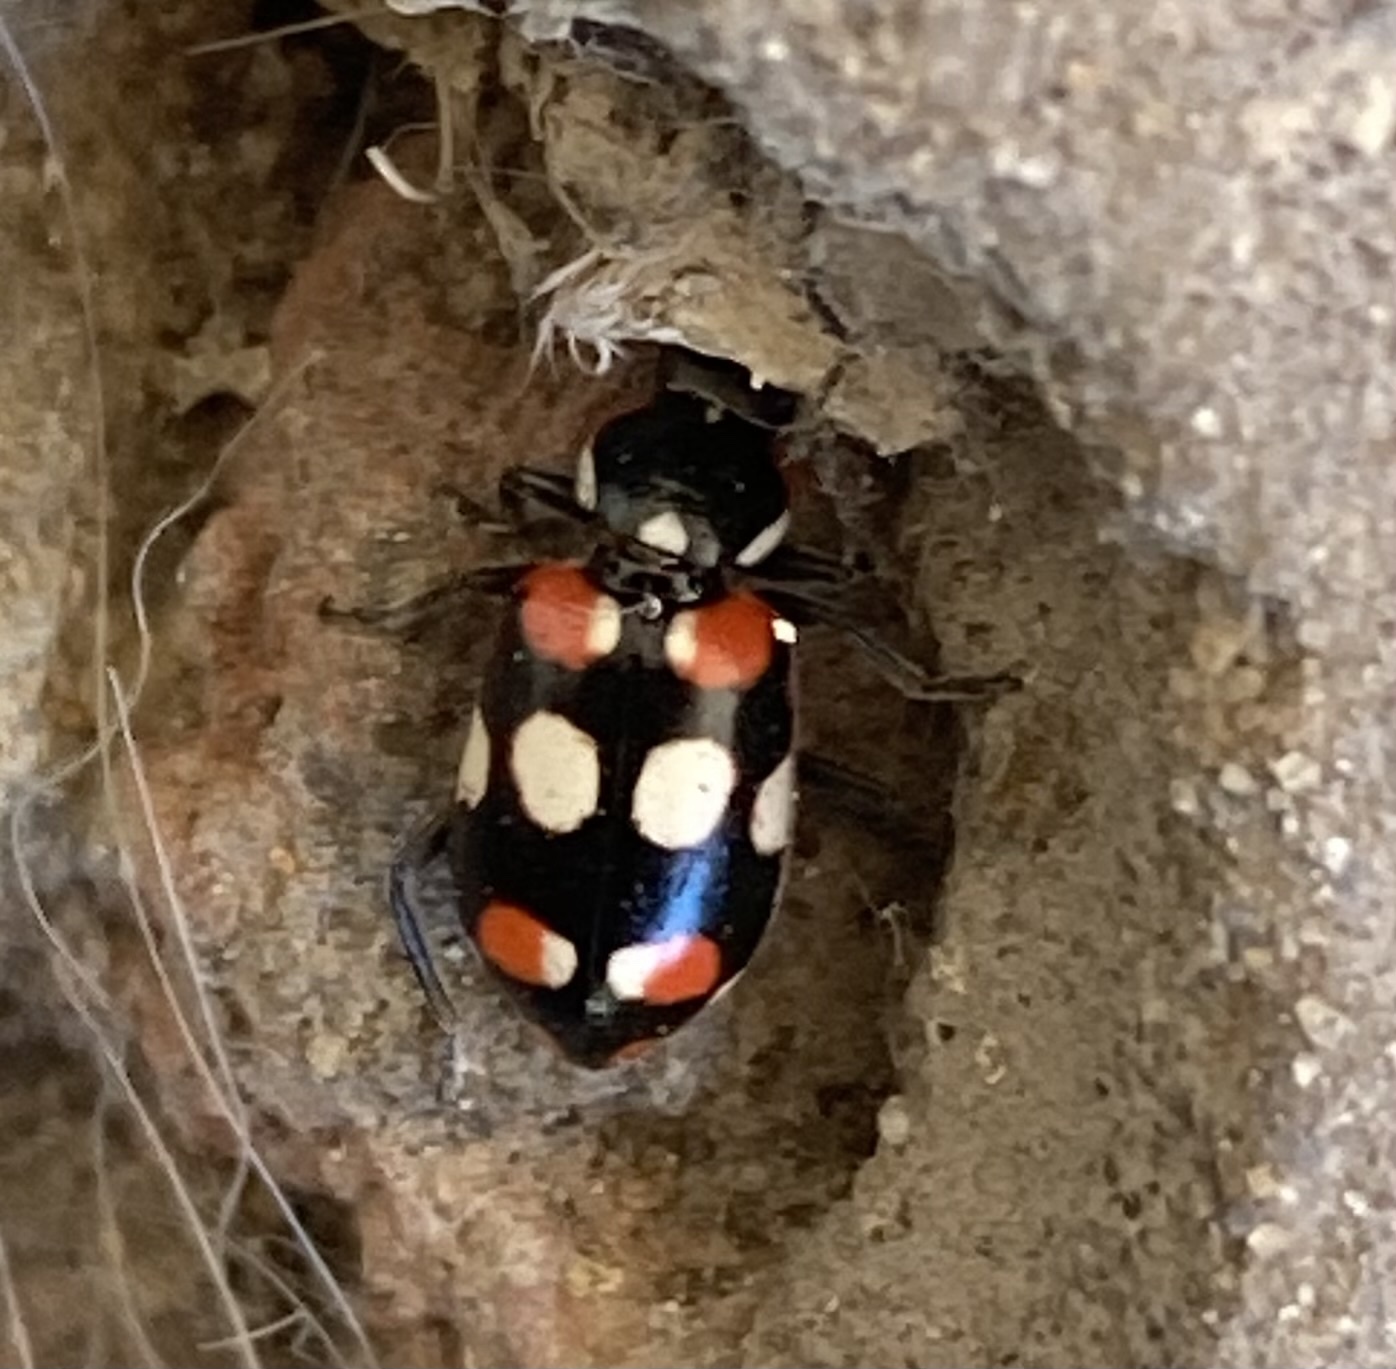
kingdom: Animalia
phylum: Arthropoda
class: Insecta
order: Coleoptera
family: Coccinellidae
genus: Eriopis
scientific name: Eriopis connexa
